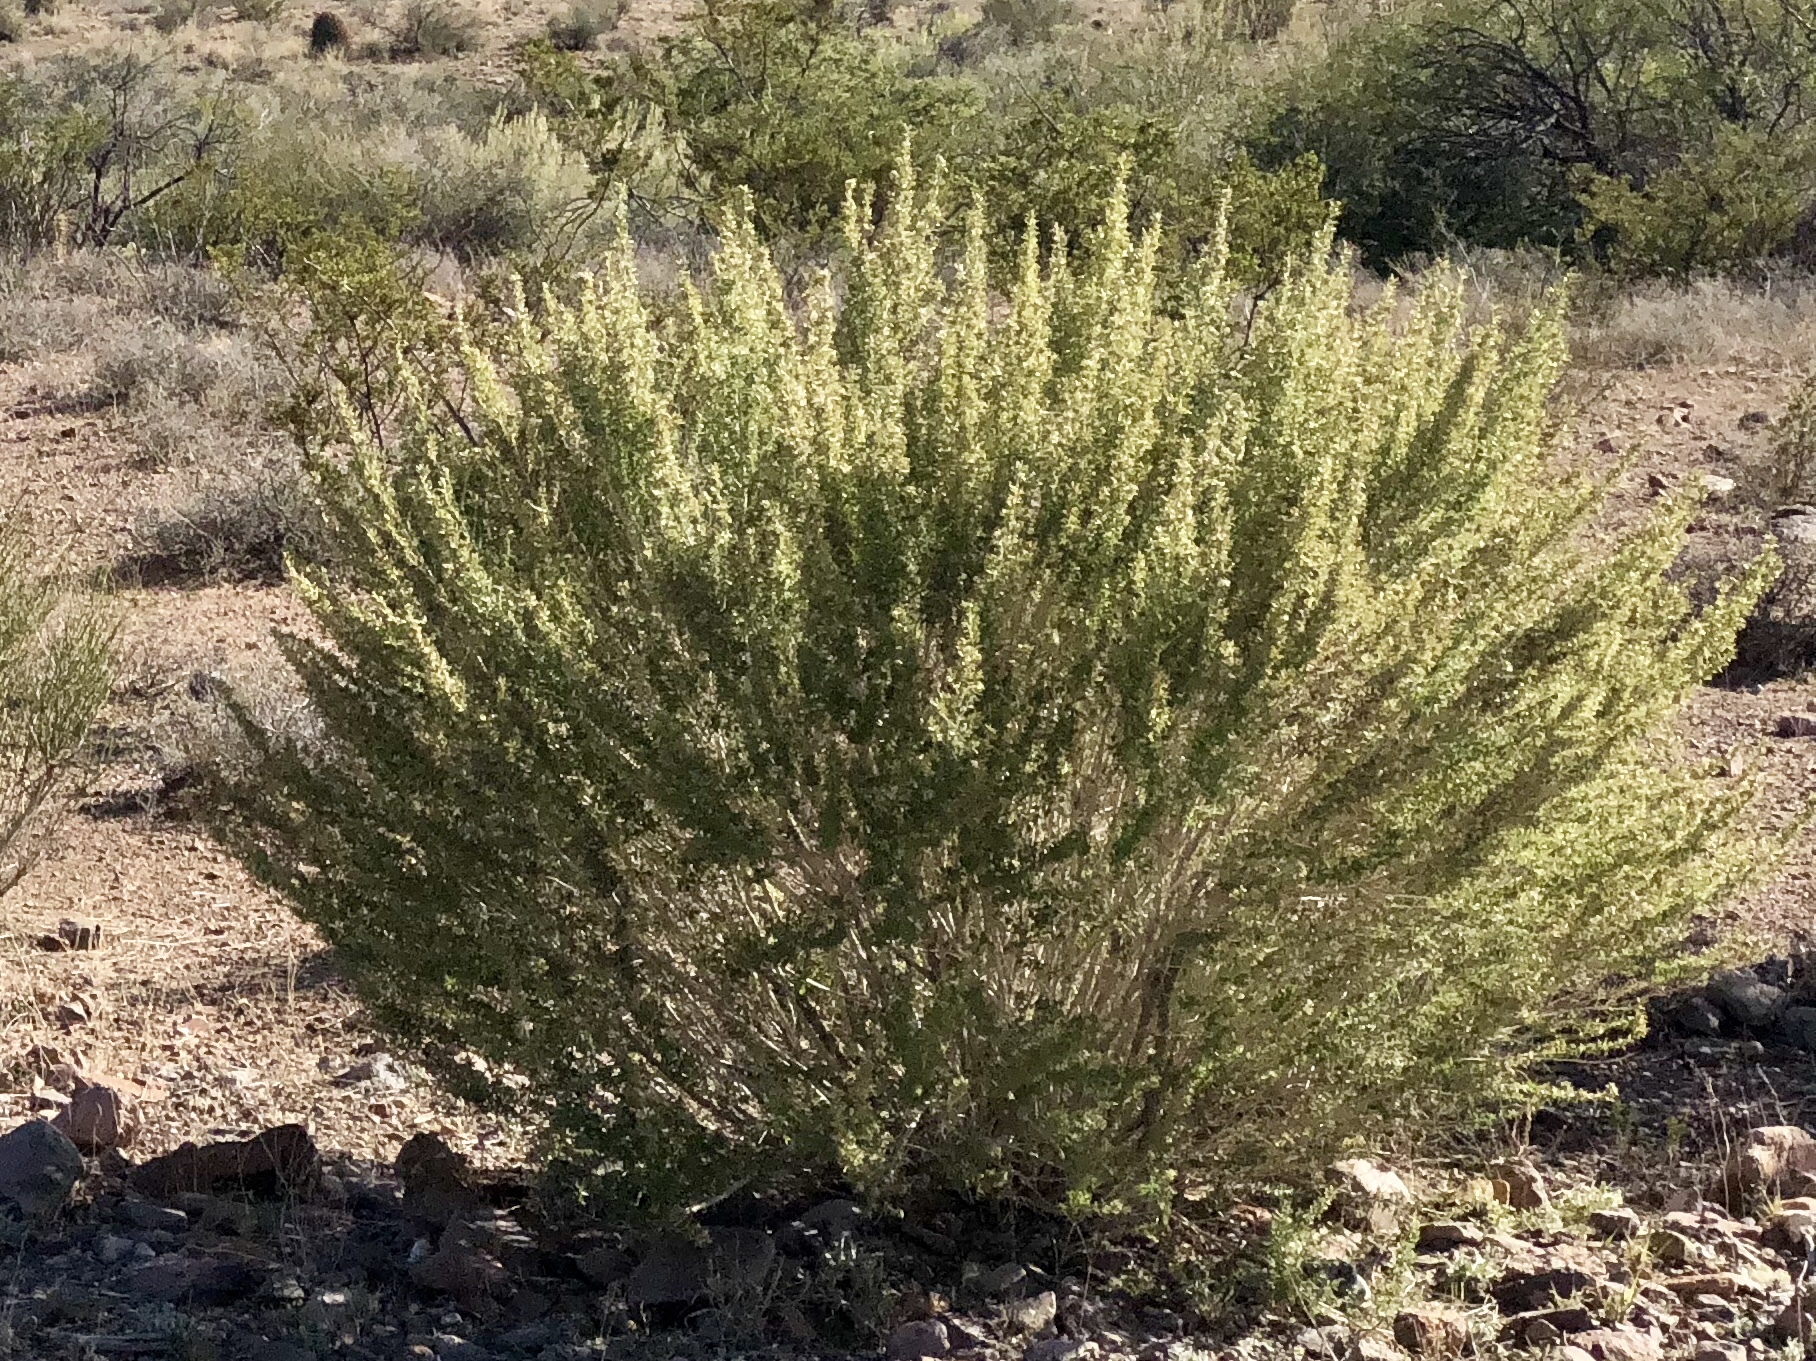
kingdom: Plantae
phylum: Tracheophyta
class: Magnoliopsida
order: Asterales
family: Asteraceae
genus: Brickellia
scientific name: Brickellia laciniata
